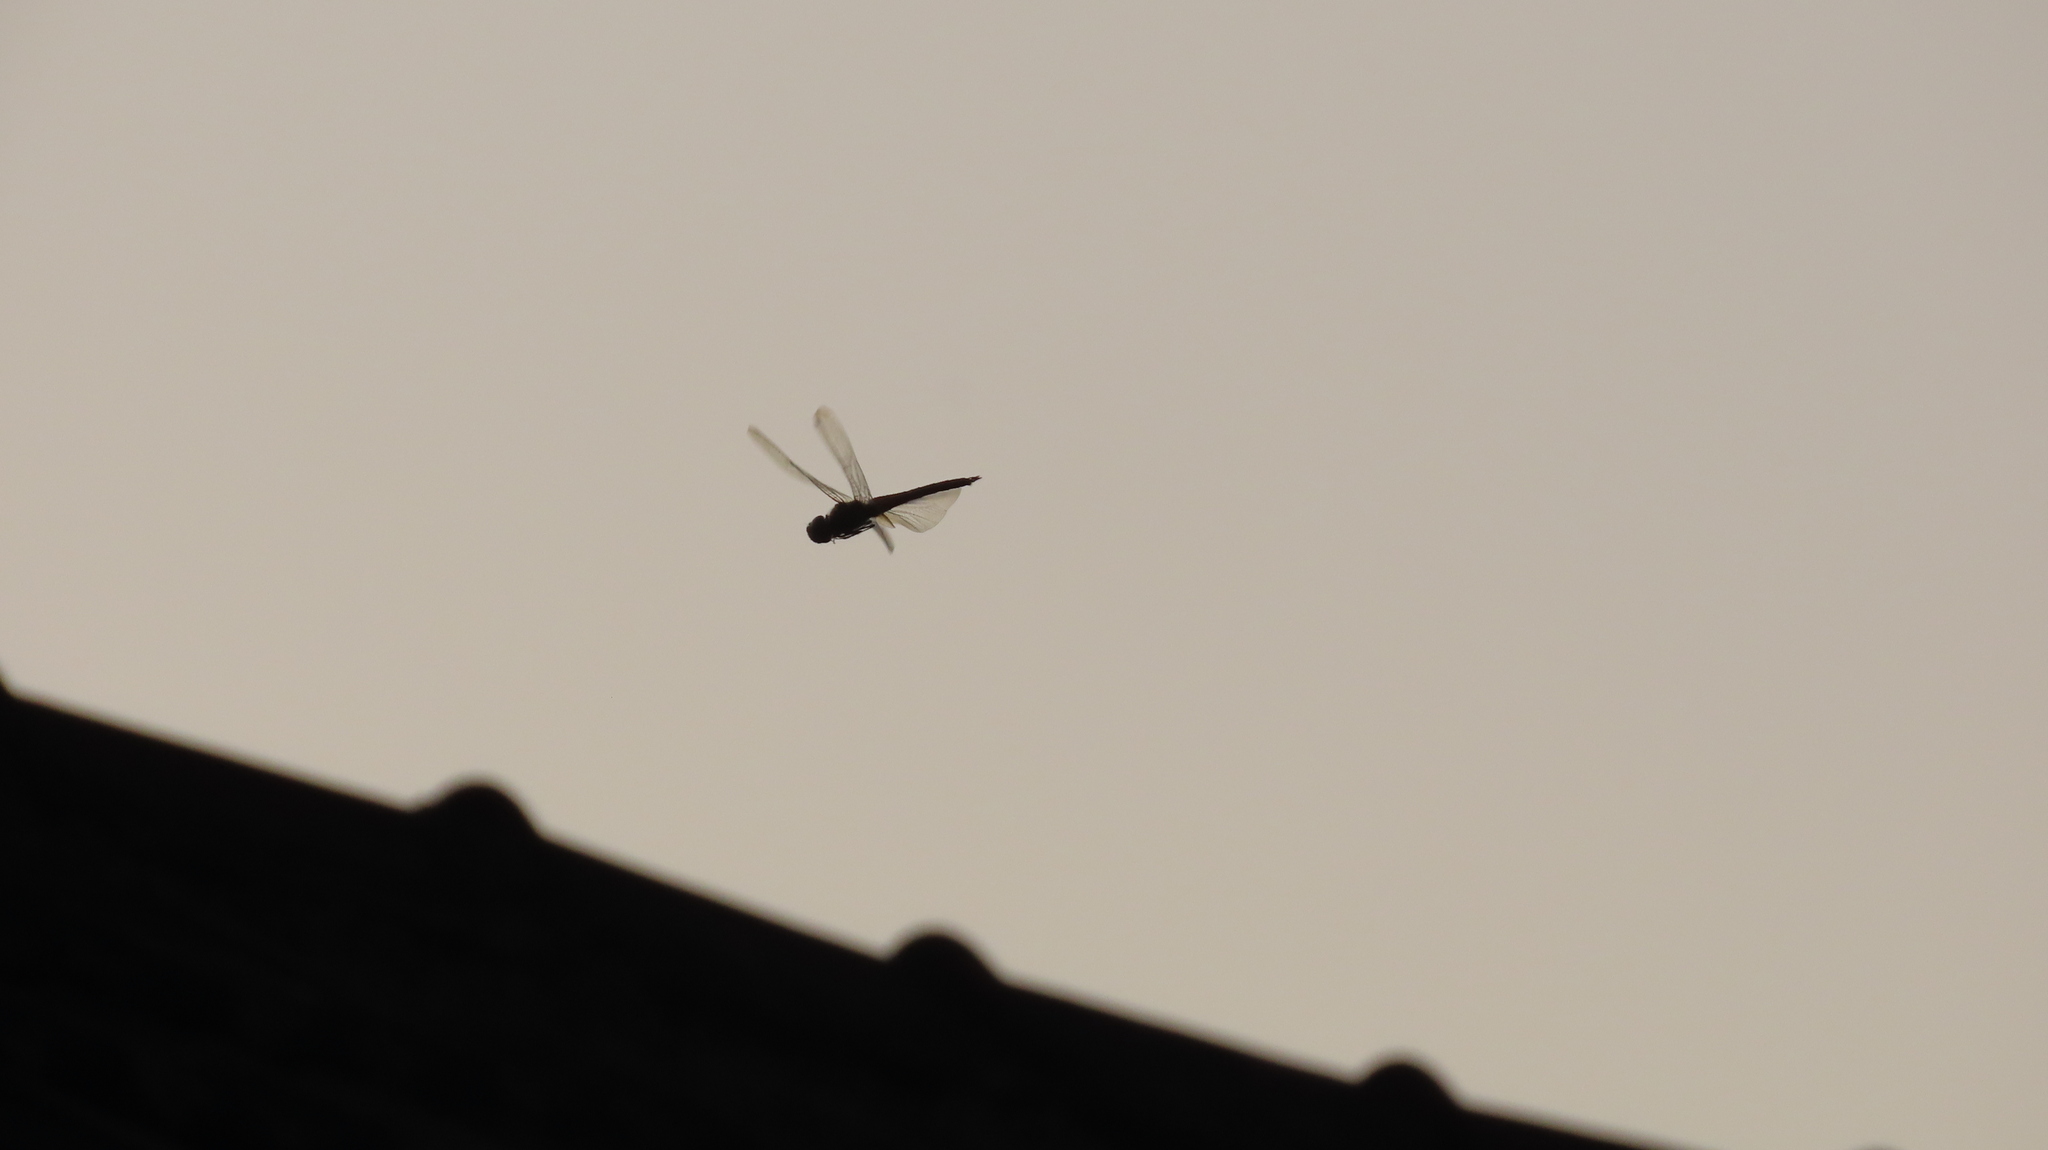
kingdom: Animalia
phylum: Arthropoda
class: Insecta
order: Odonata
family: Libellulidae
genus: Pantala
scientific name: Pantala flavescens
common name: Wandering glider
